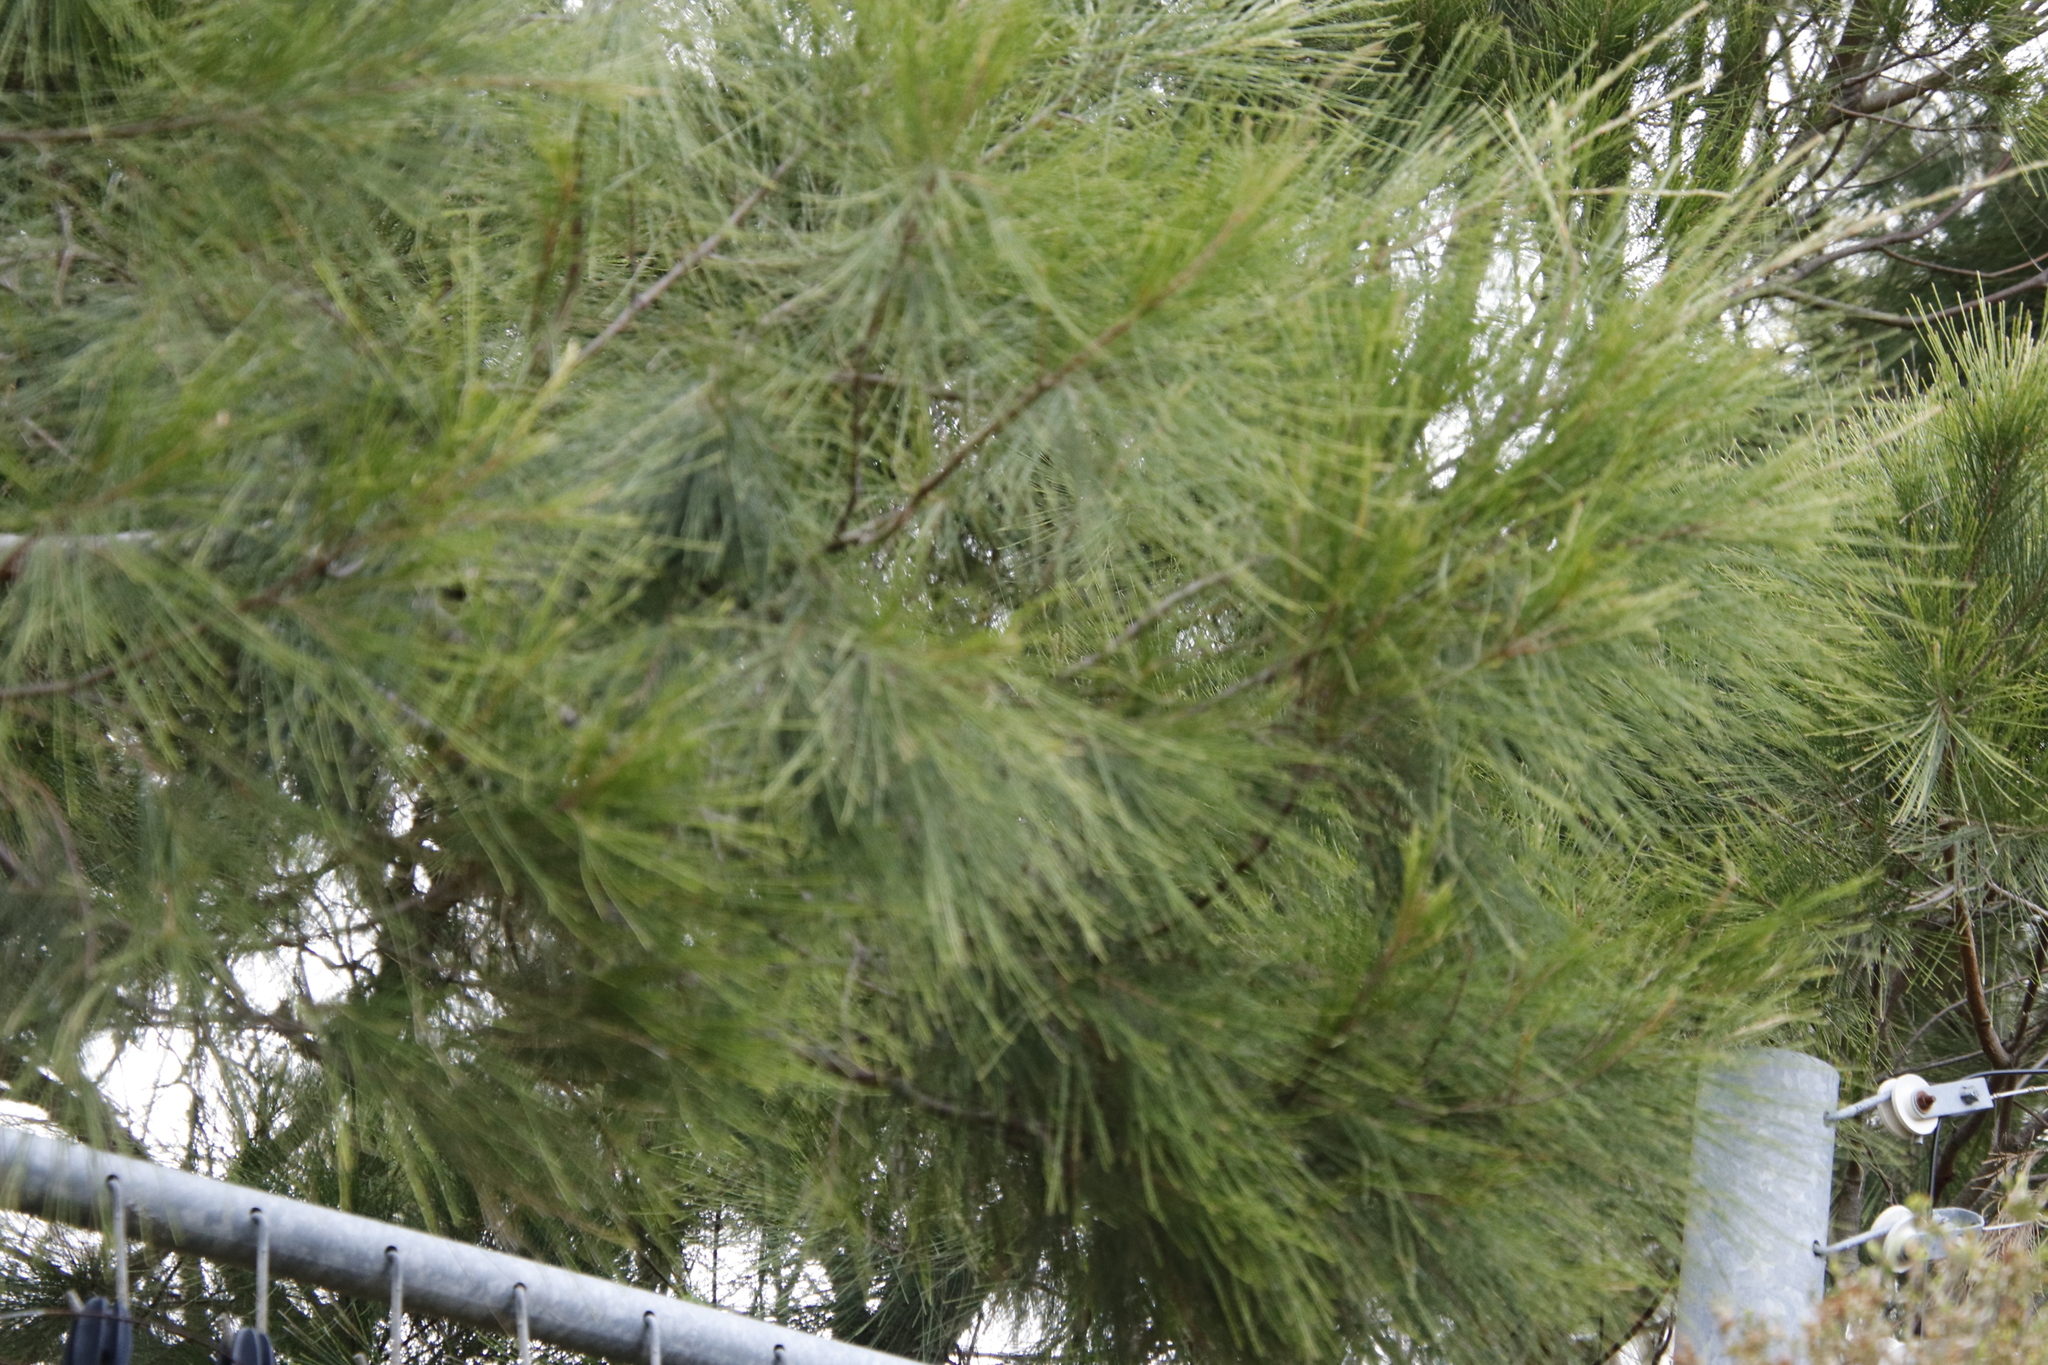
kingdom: Plantae
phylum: Tracheophyta
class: Magnoliopsida
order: Fagales
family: Casuarinaceae
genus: Casuarina
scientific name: Casuarina cunninghamiana
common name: River sheoak
